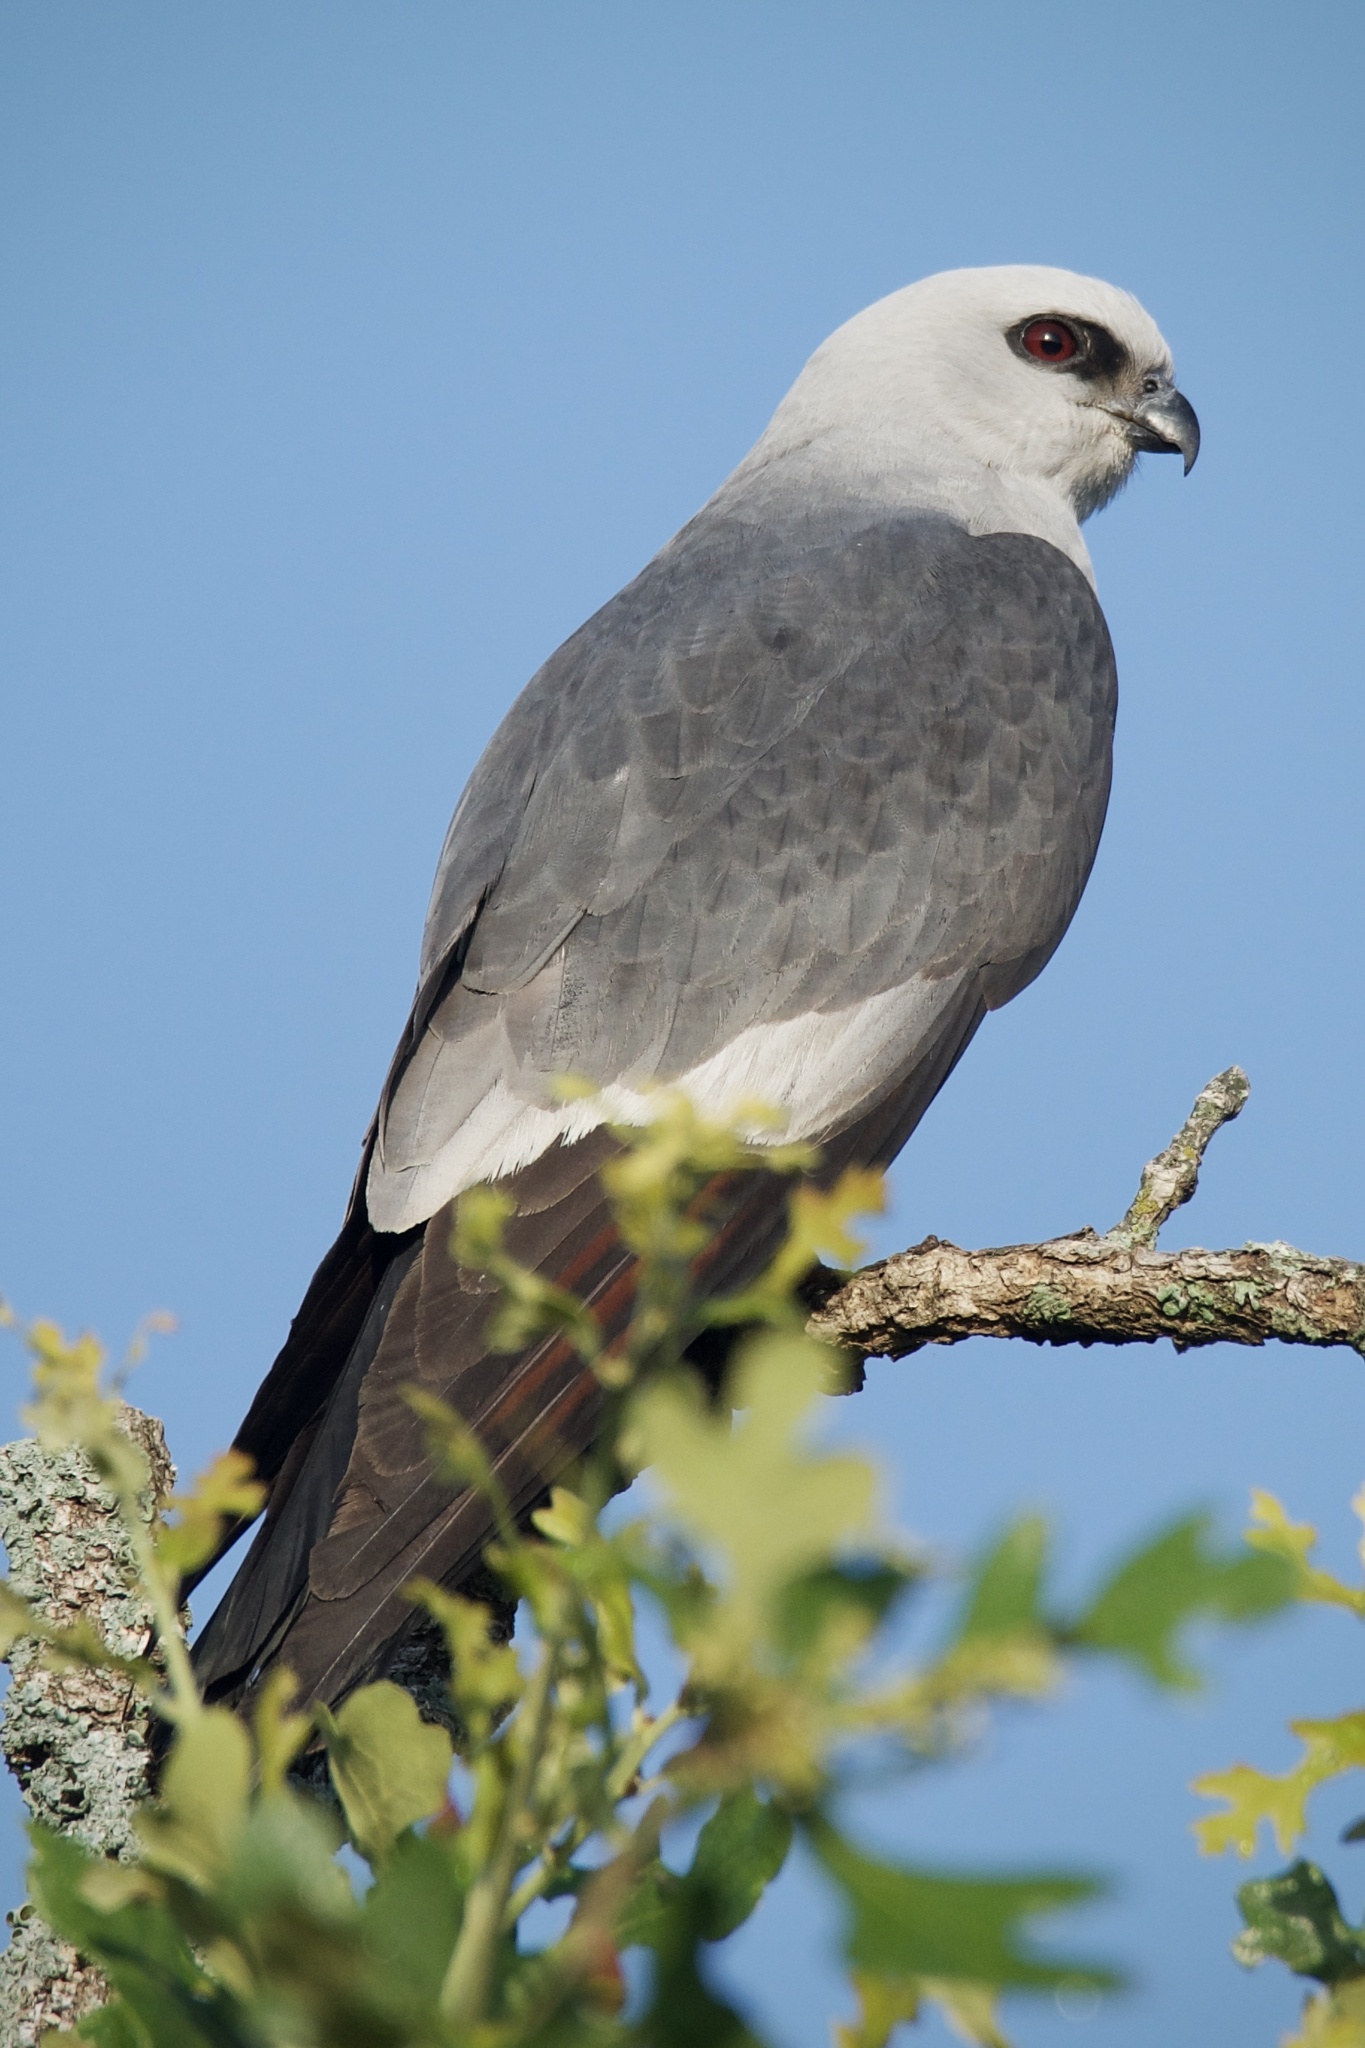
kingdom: Animalia
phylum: Chordata
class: Aves
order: Accipitriformes
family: Accipitridae
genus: Ictinia
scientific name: Ictinia mississippiensis
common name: Mississippi kite
